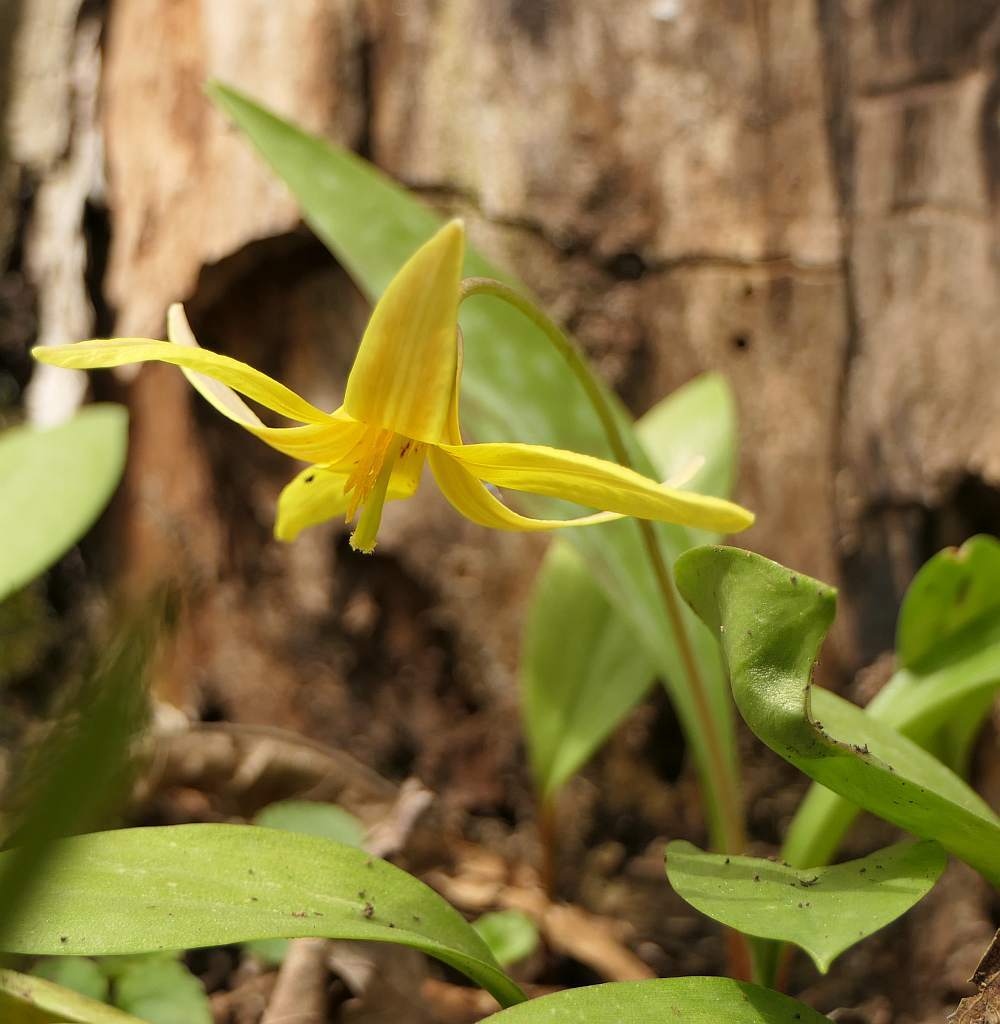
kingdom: Plantae
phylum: Tracheophyta
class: Liliopsida
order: Liliales
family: Liliaceae
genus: Erythronium
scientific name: Erythronium americanum
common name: Yellow adder's-tongue
